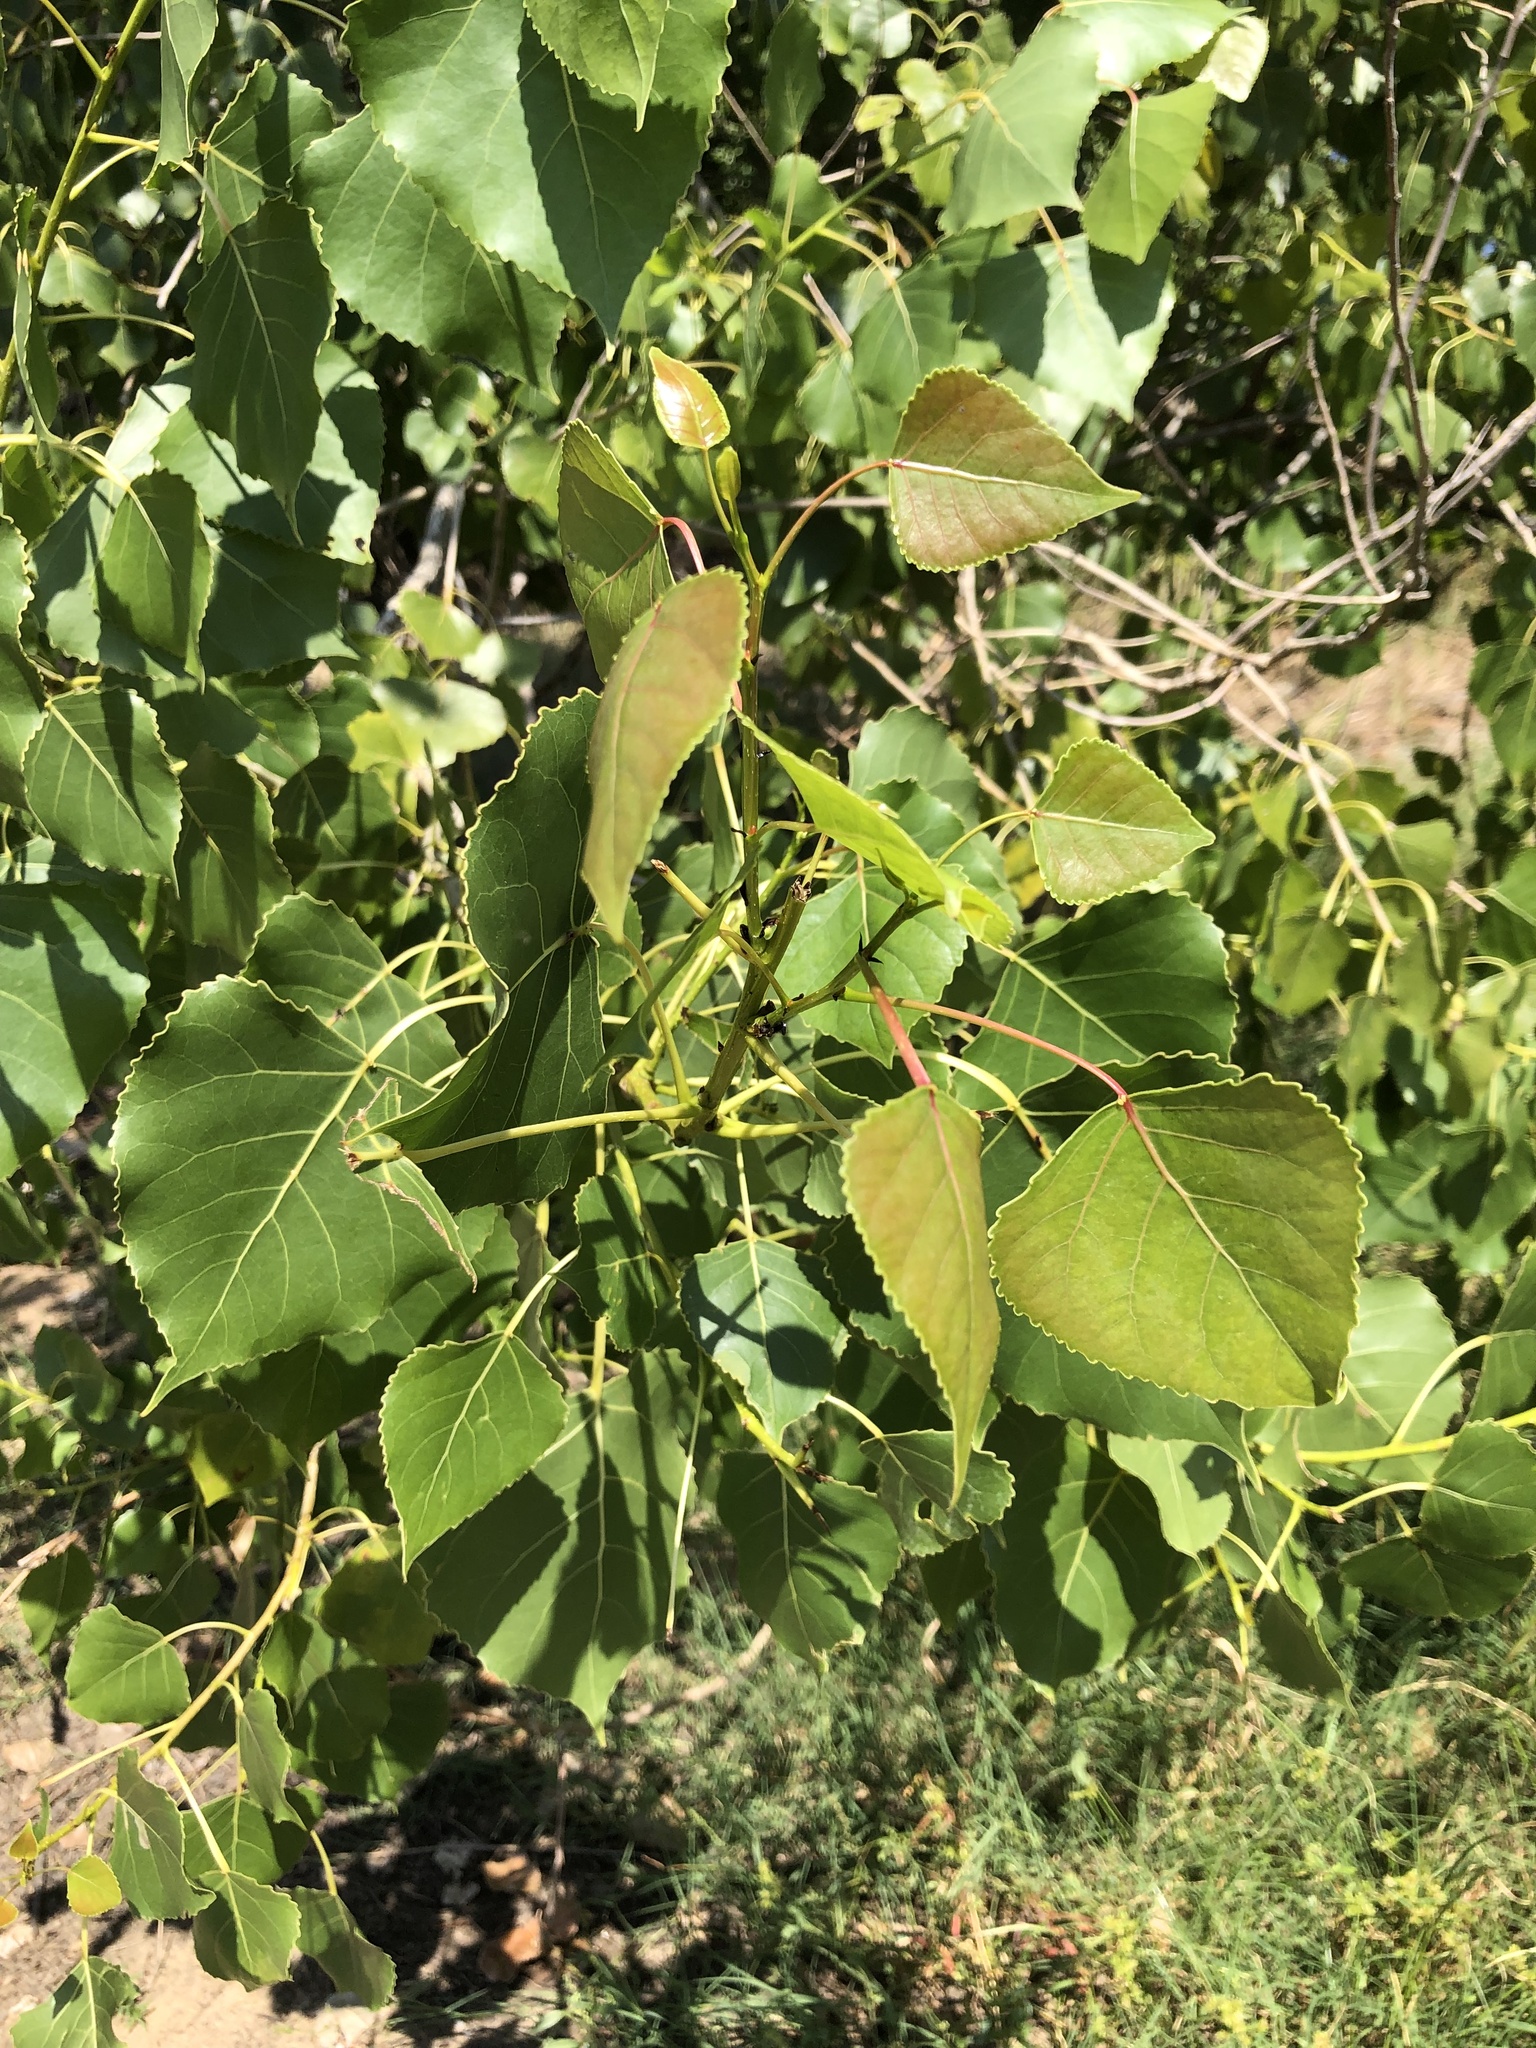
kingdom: Plantae
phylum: Tracheophyta
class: Magnoliopsida
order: Malpighiales
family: Salicaceae
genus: Populus
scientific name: Populus deltoides
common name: Eastern cottonwood
